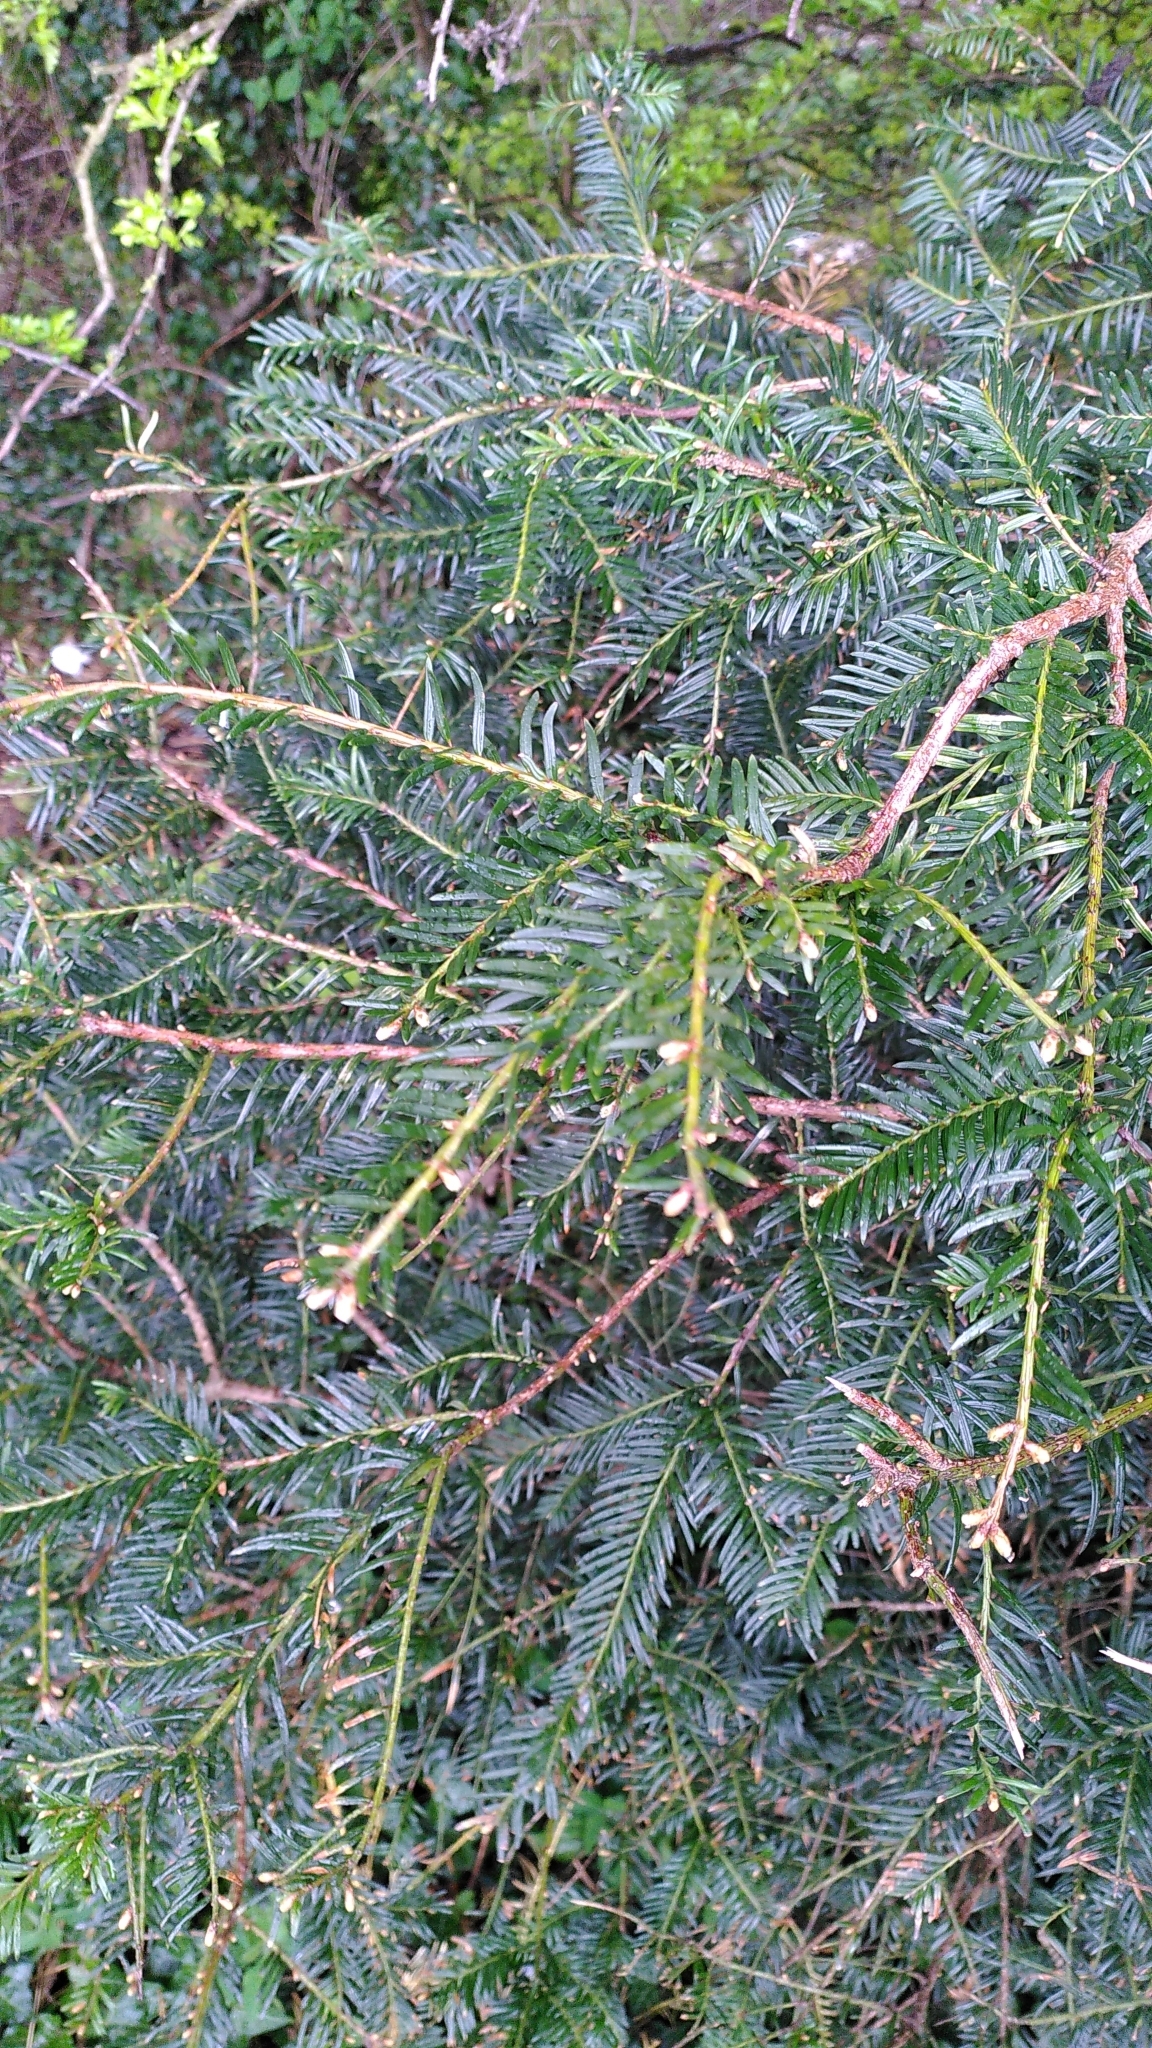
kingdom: Plantae
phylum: Tracheophyta
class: Pinopsida
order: Pinales
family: Taxaceae
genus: Taxus
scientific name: Taxus baccata
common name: Yew
